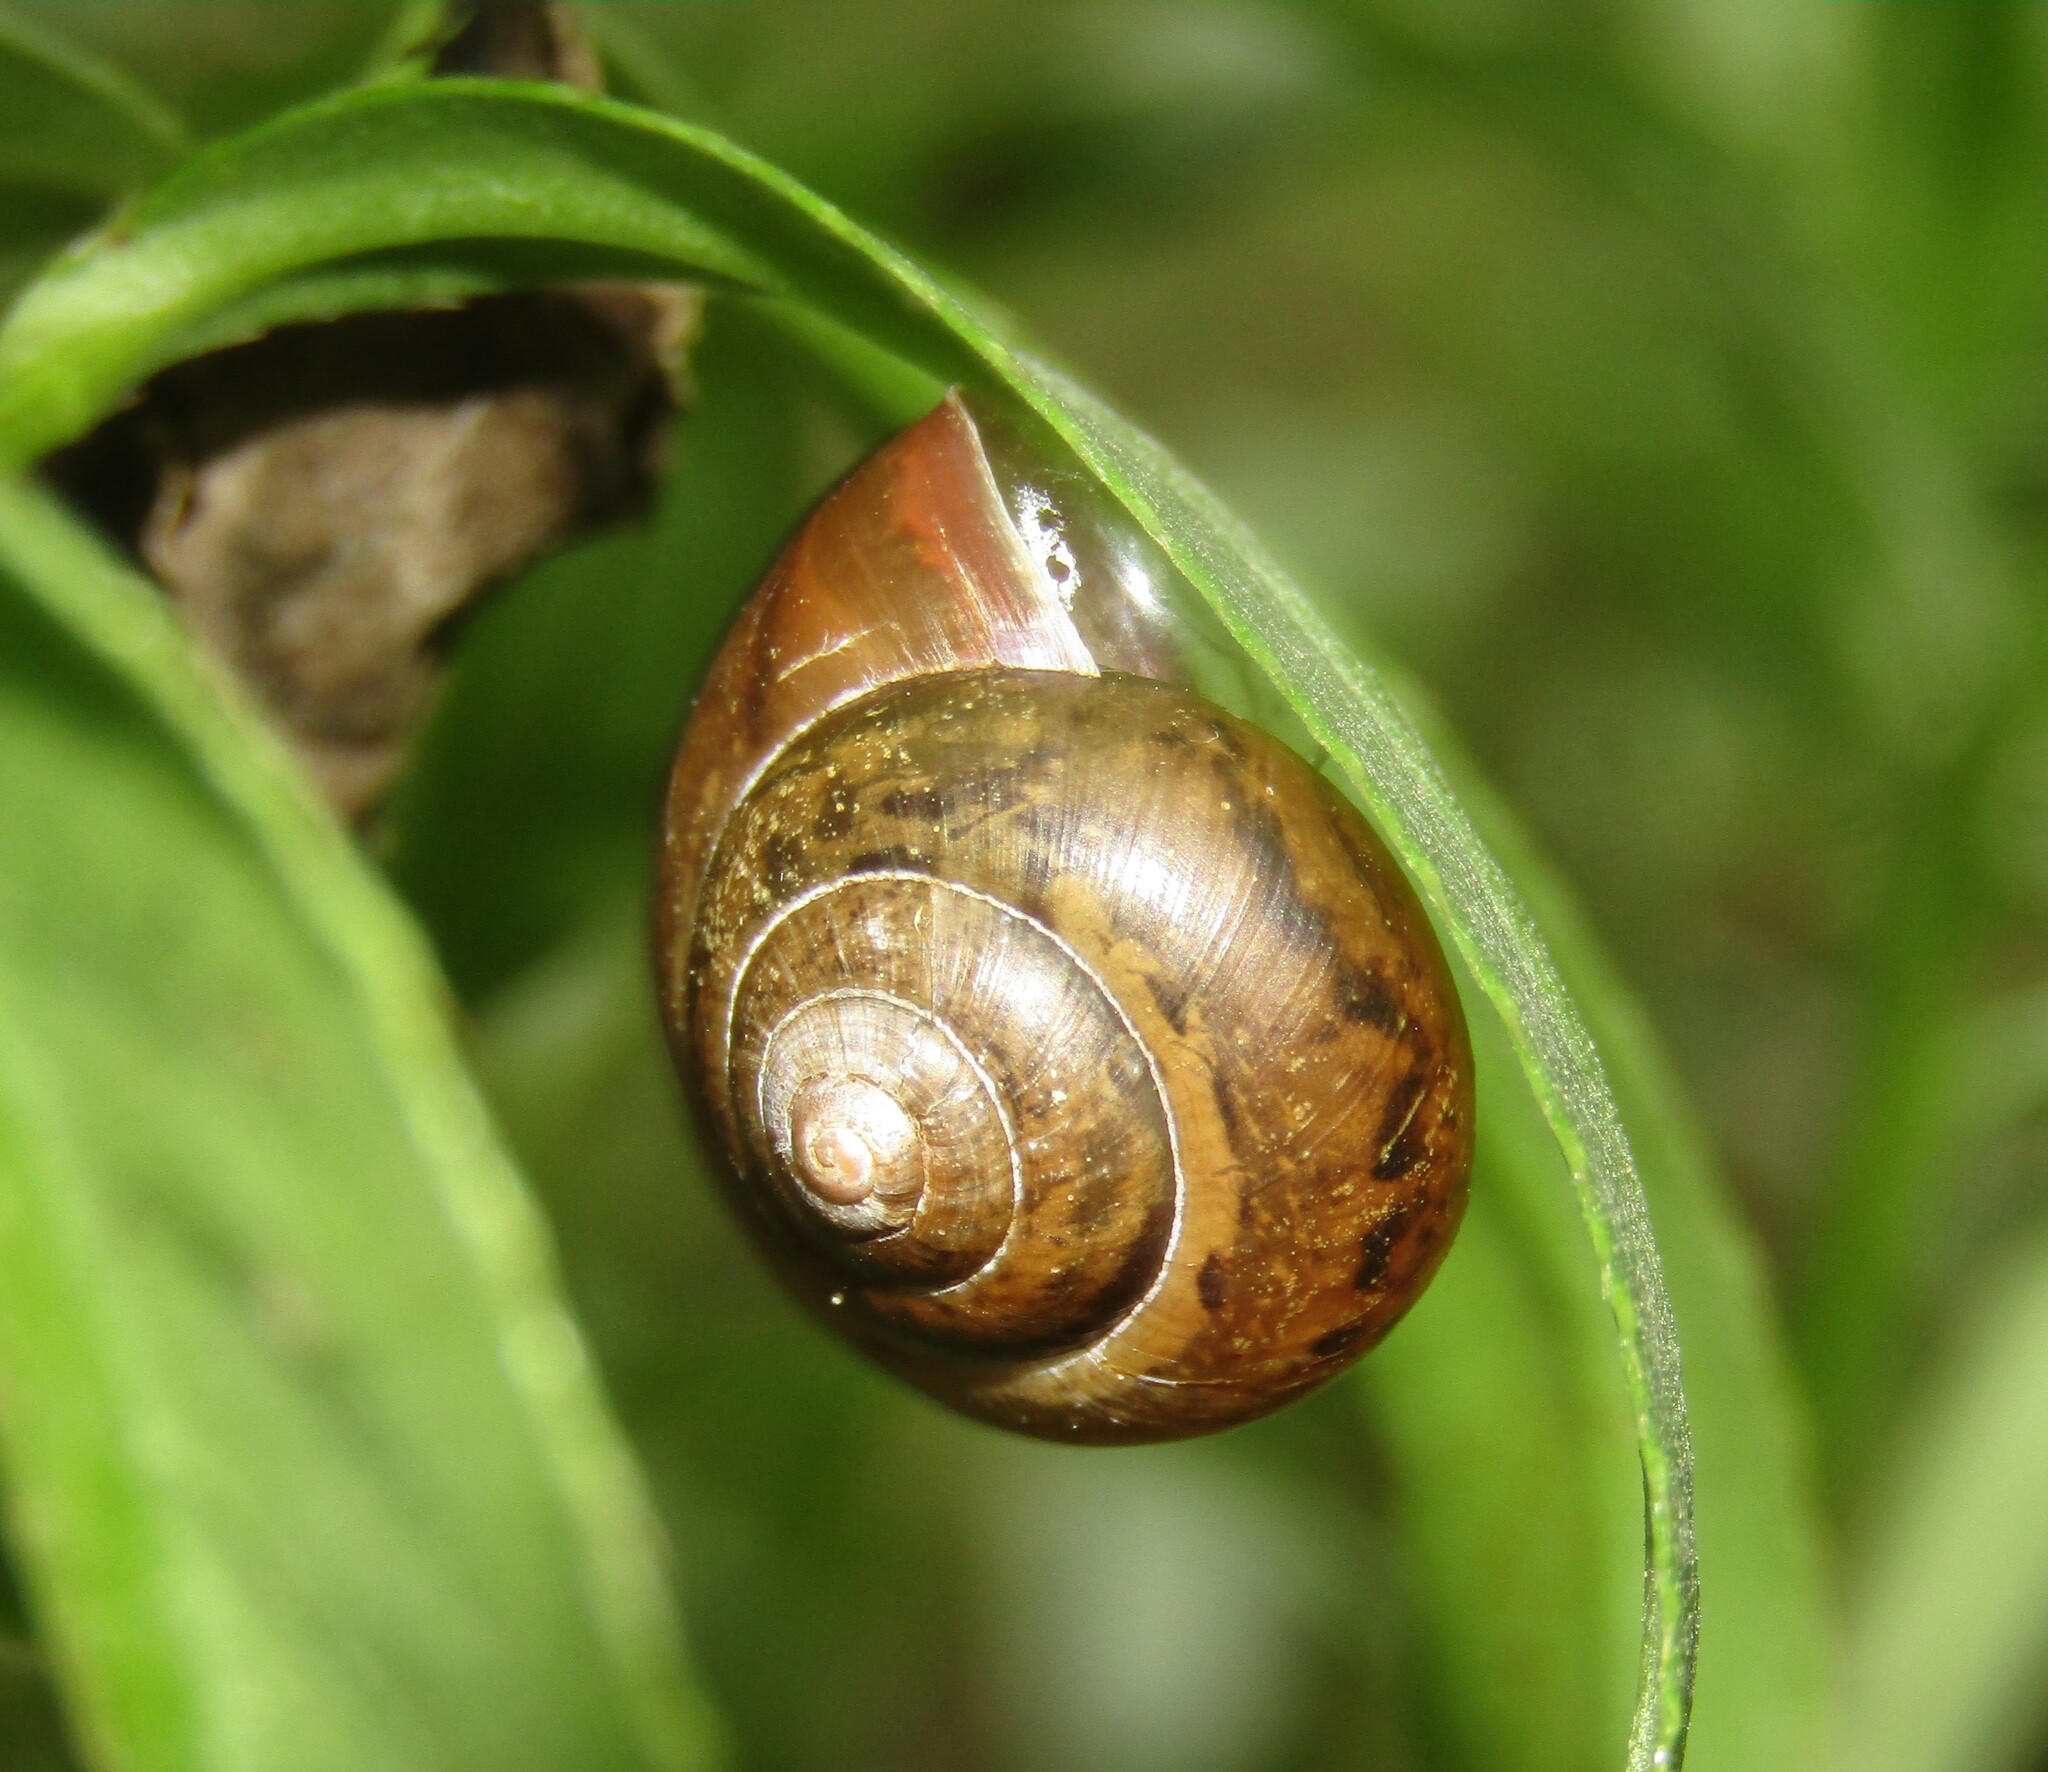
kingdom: Animalia
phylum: Mollusca
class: Gastropoda
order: Stylommatophora
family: Camaenidae
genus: Fruticicola
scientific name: Fruticicola fruticum
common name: Bush snail
